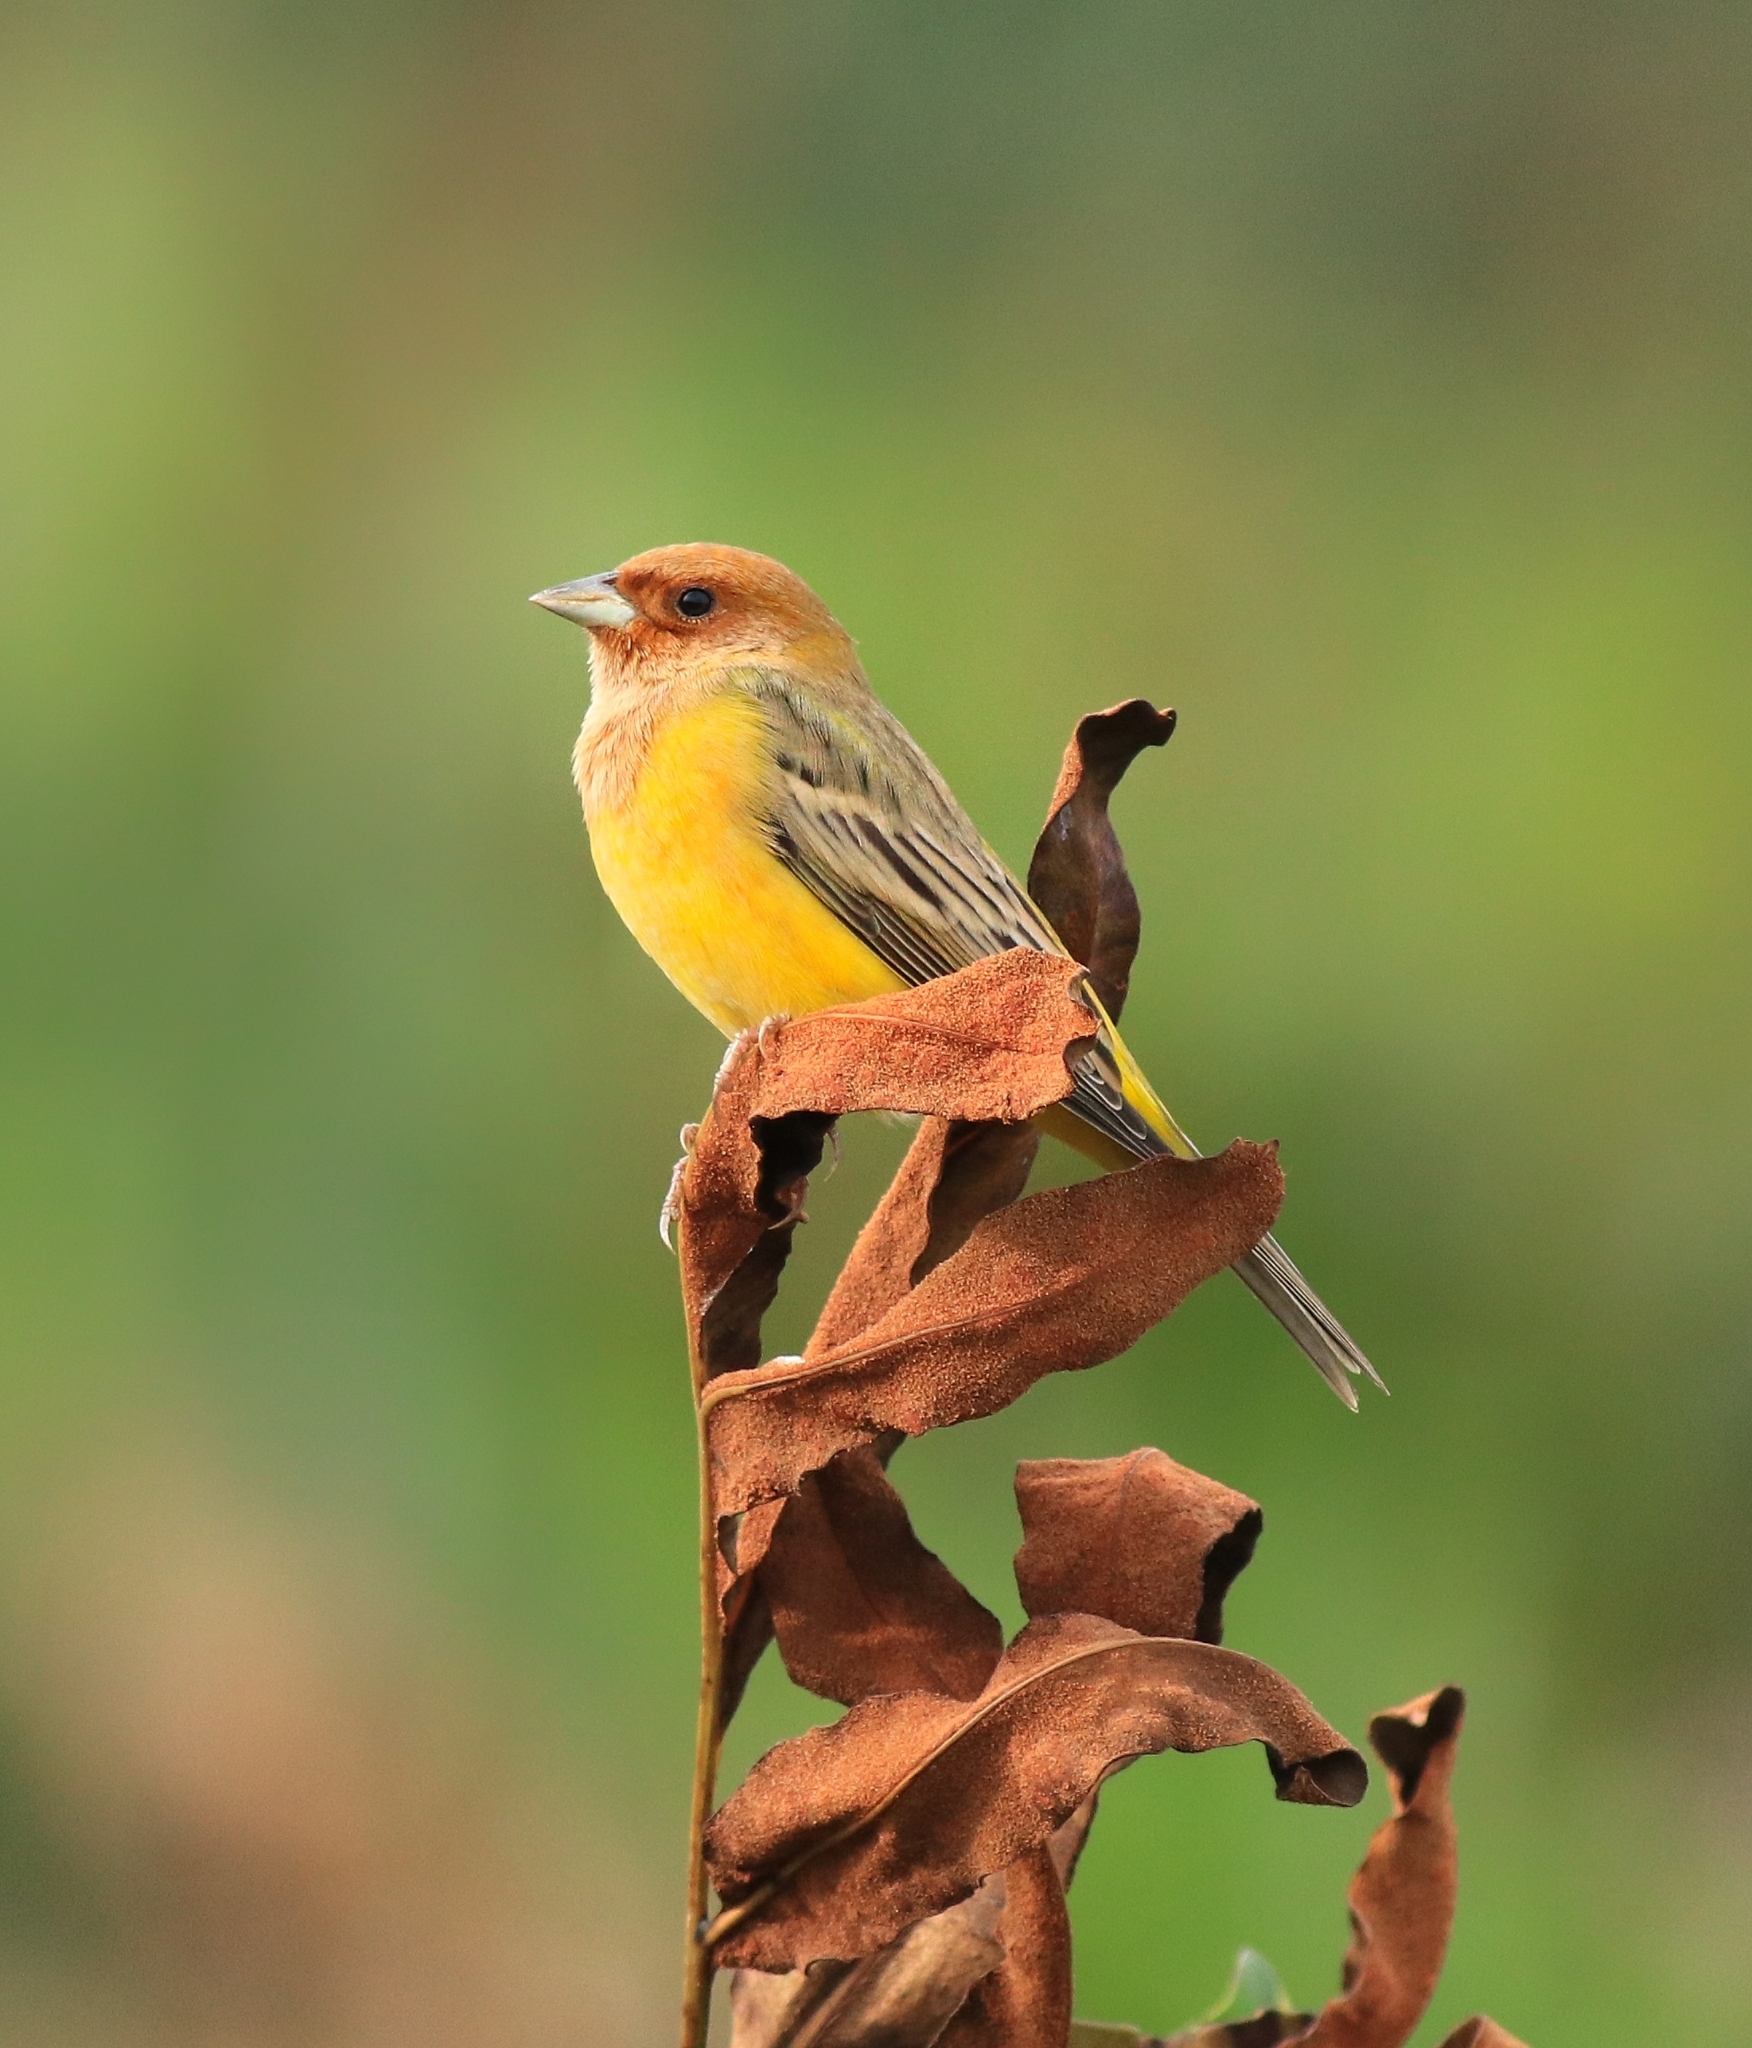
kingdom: Animalia
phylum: Chordata
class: Aves
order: Passeriformes
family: Emberizidae
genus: Emberiza
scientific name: Emberiza bruniceps
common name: Red-headed bunting
